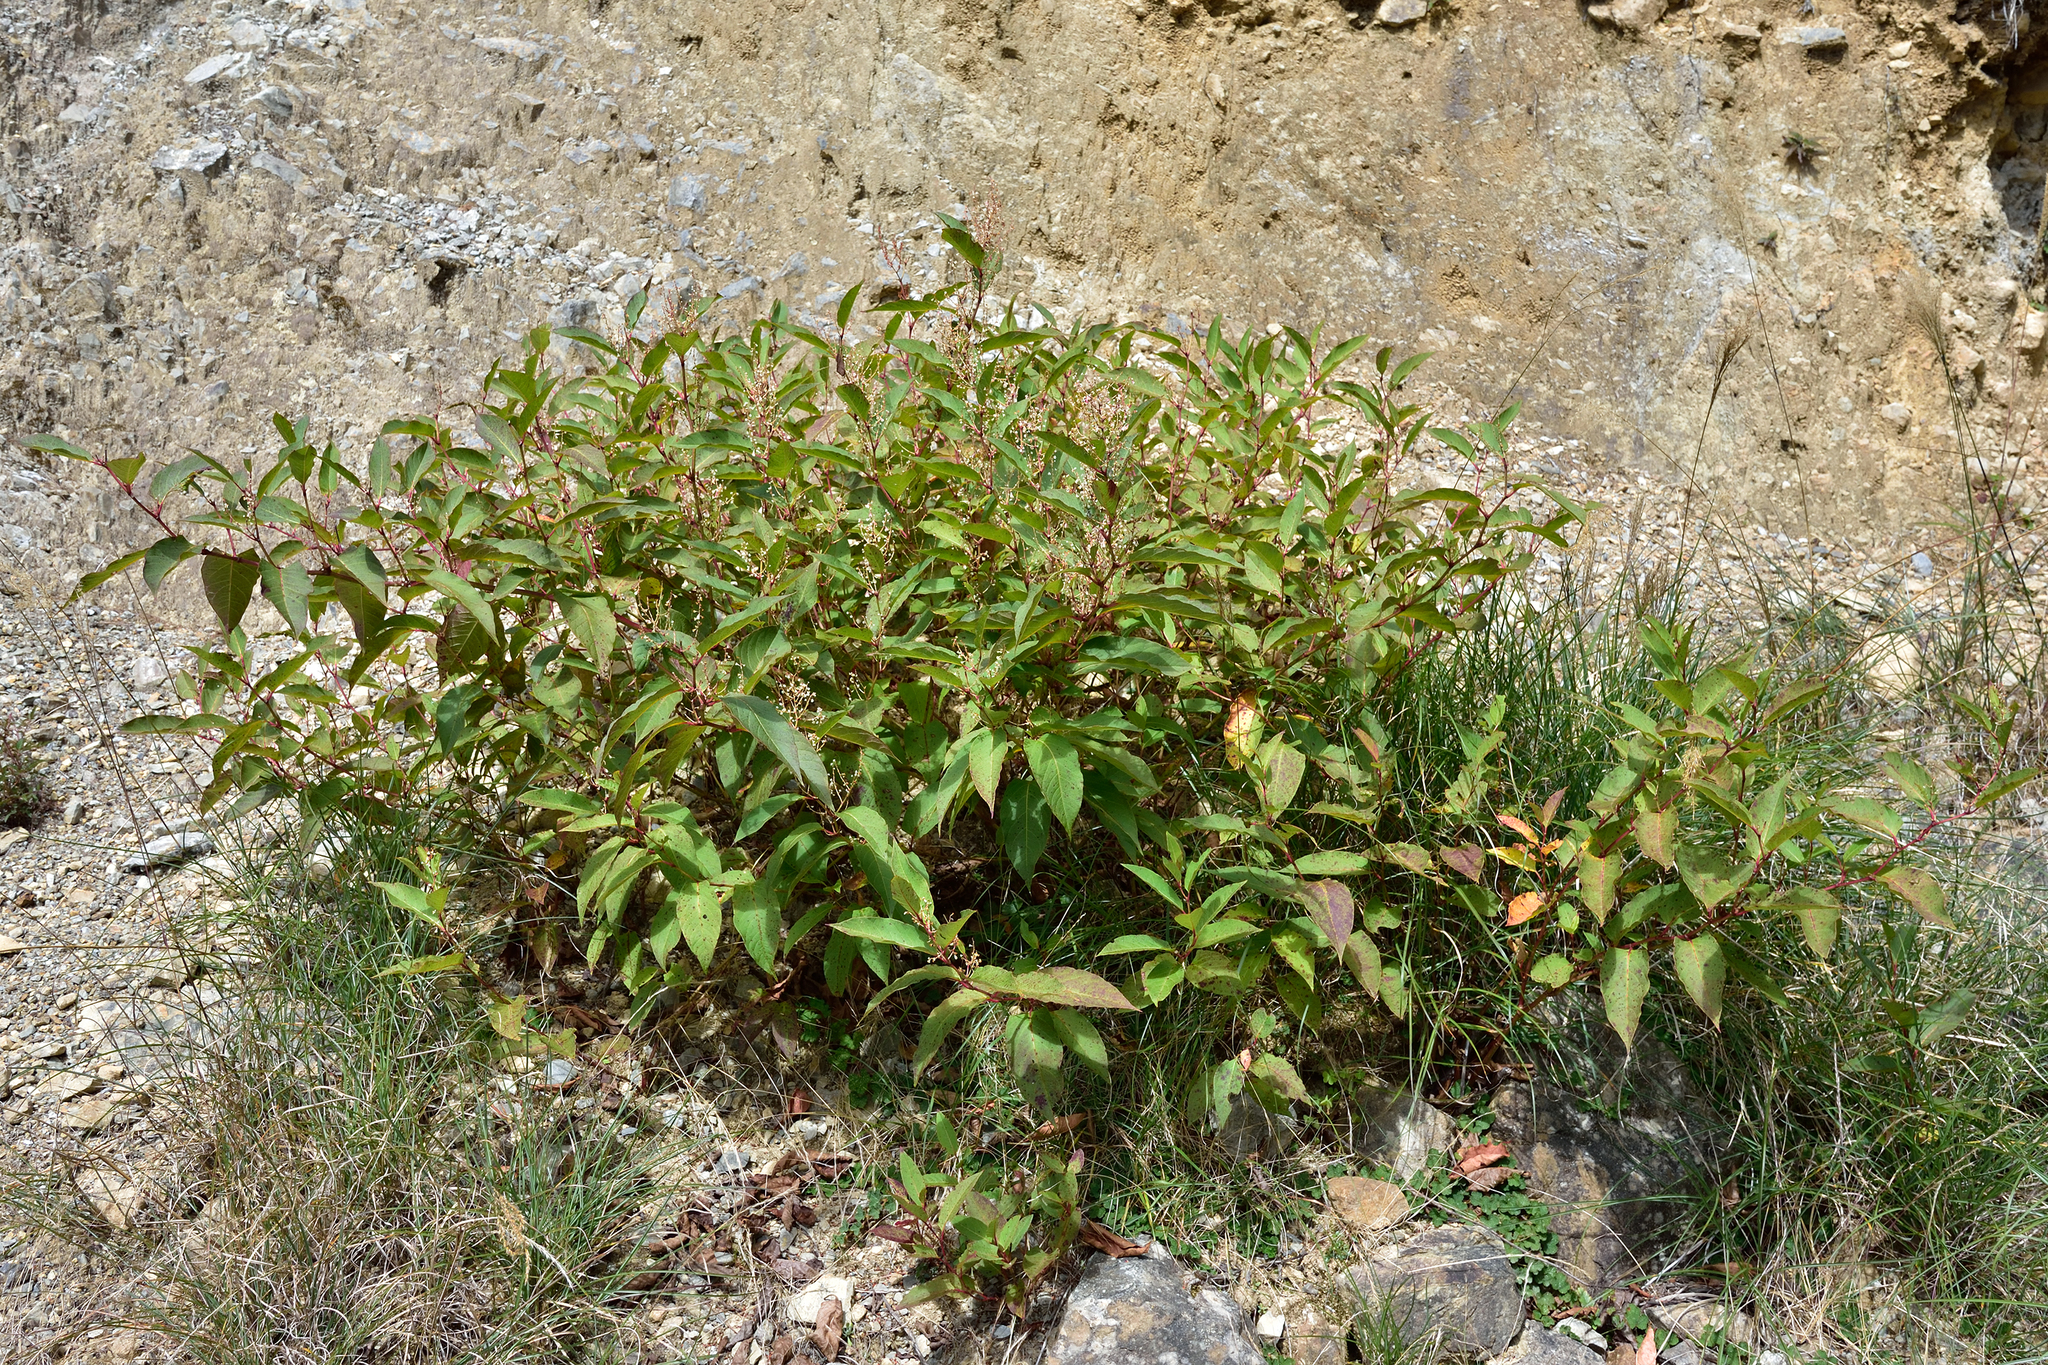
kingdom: Plantae
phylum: Tracheophyta
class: Magnoliopsida
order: Caryophyllales
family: Polygonaceae
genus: Reynoutria
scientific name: Reynoutria japonica
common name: Japanese knotweed
